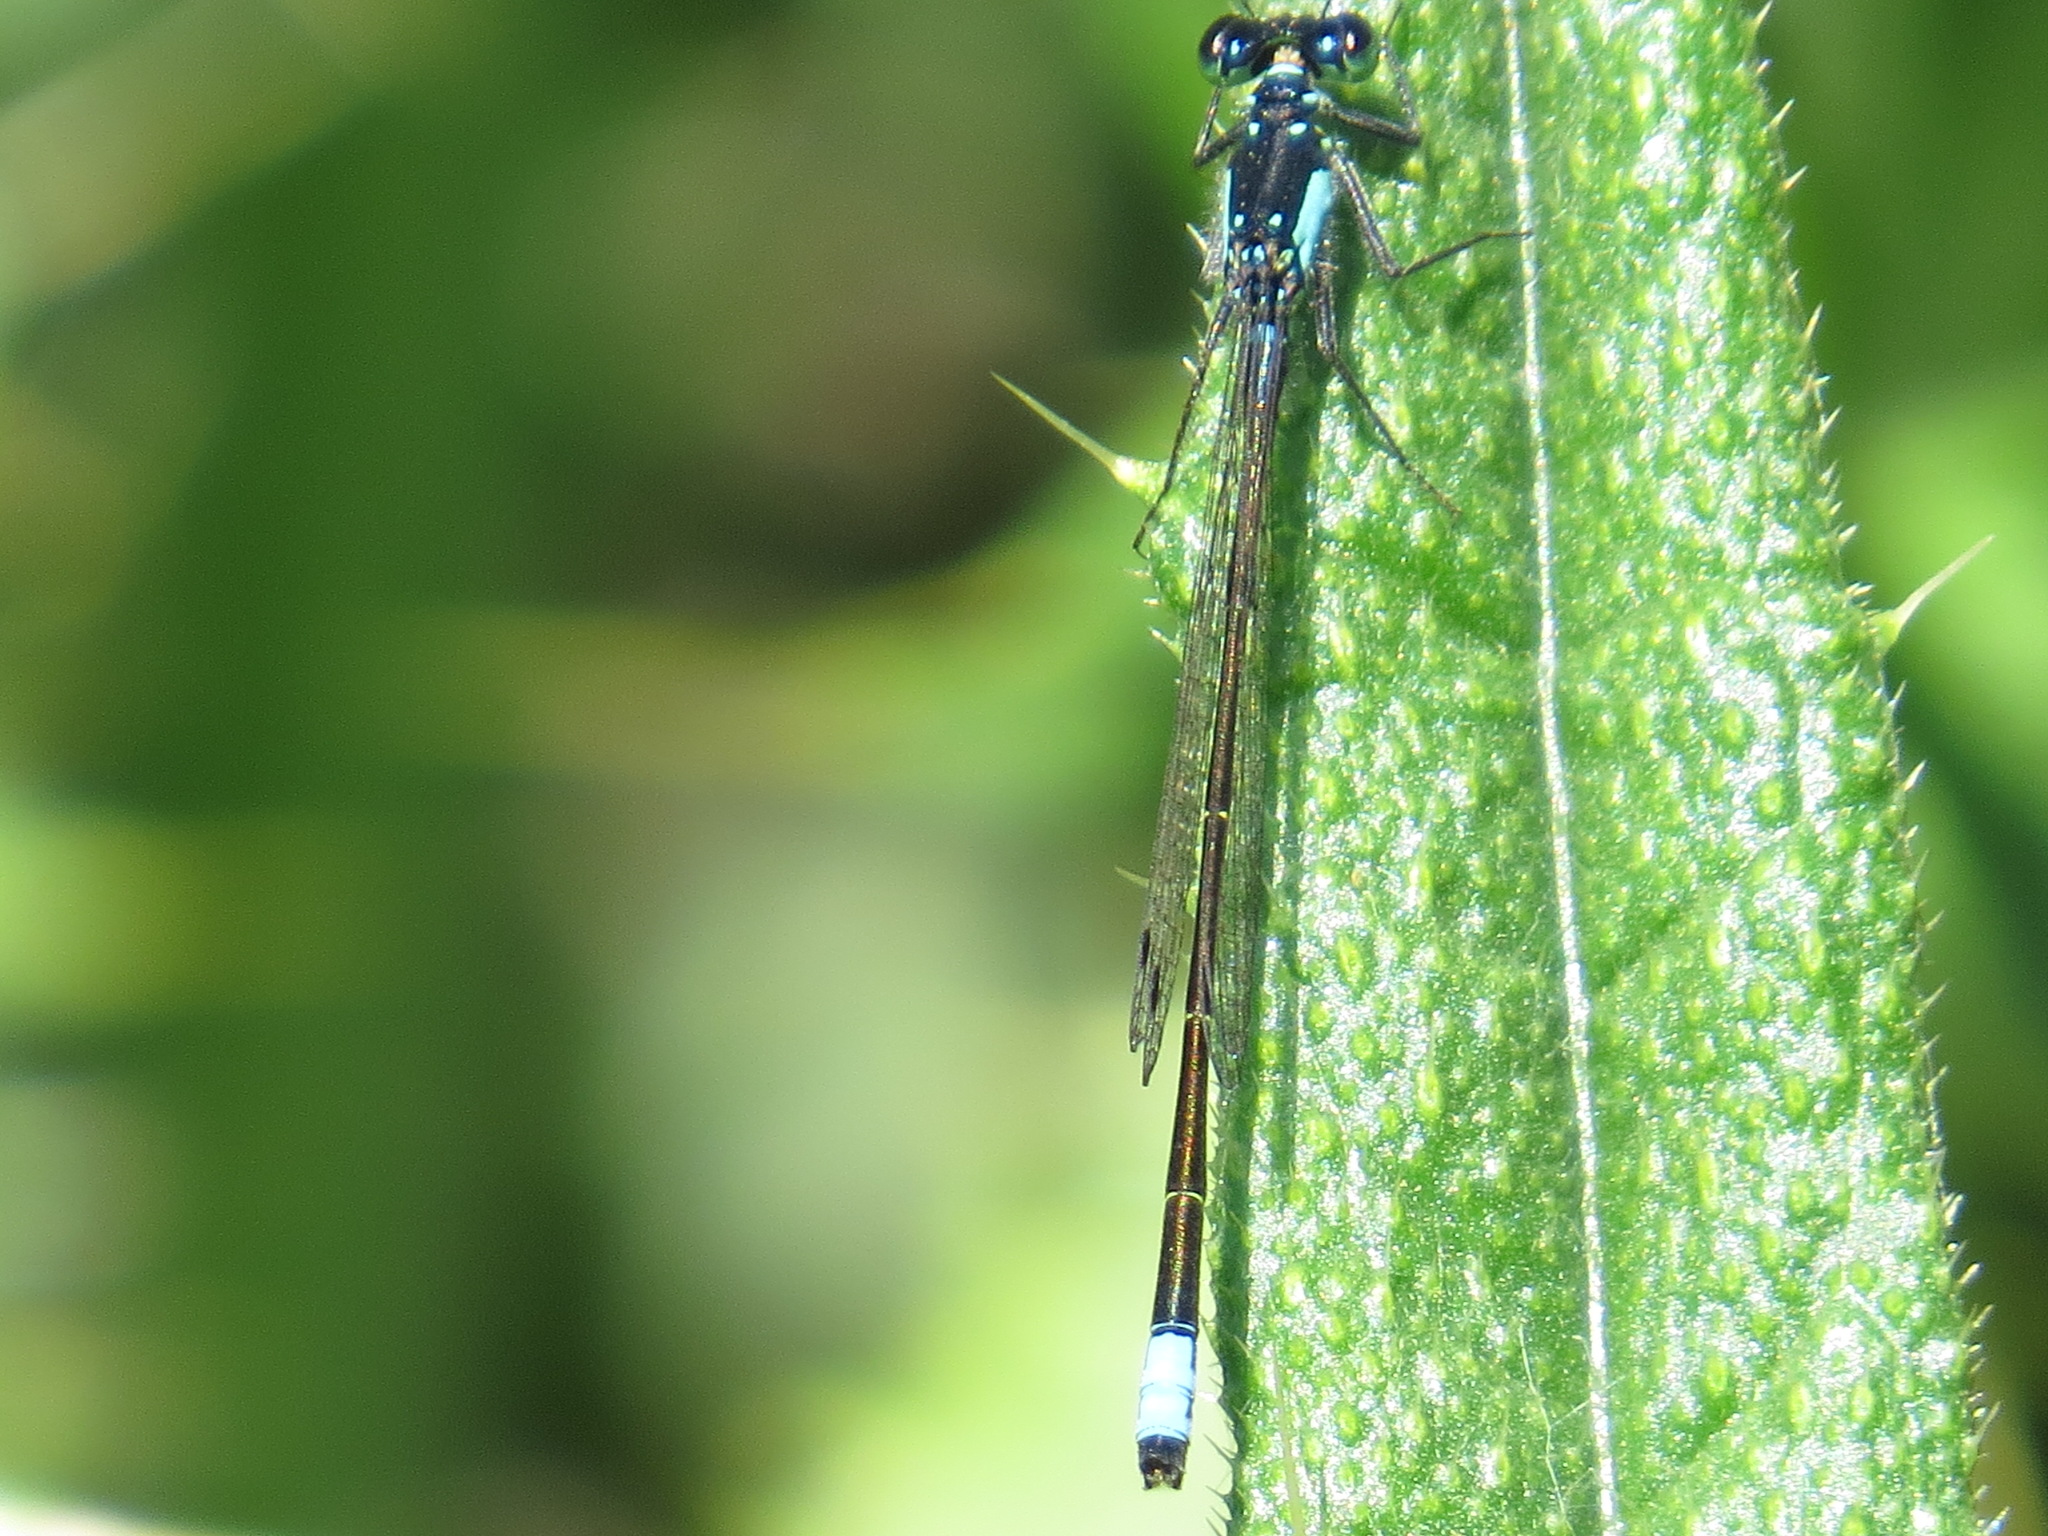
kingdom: Animalia
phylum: Arthropoda
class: Insecta
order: Odonata
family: Coenagrionidae
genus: Ischnura
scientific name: Ischnura cervula
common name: Pacific forktail
